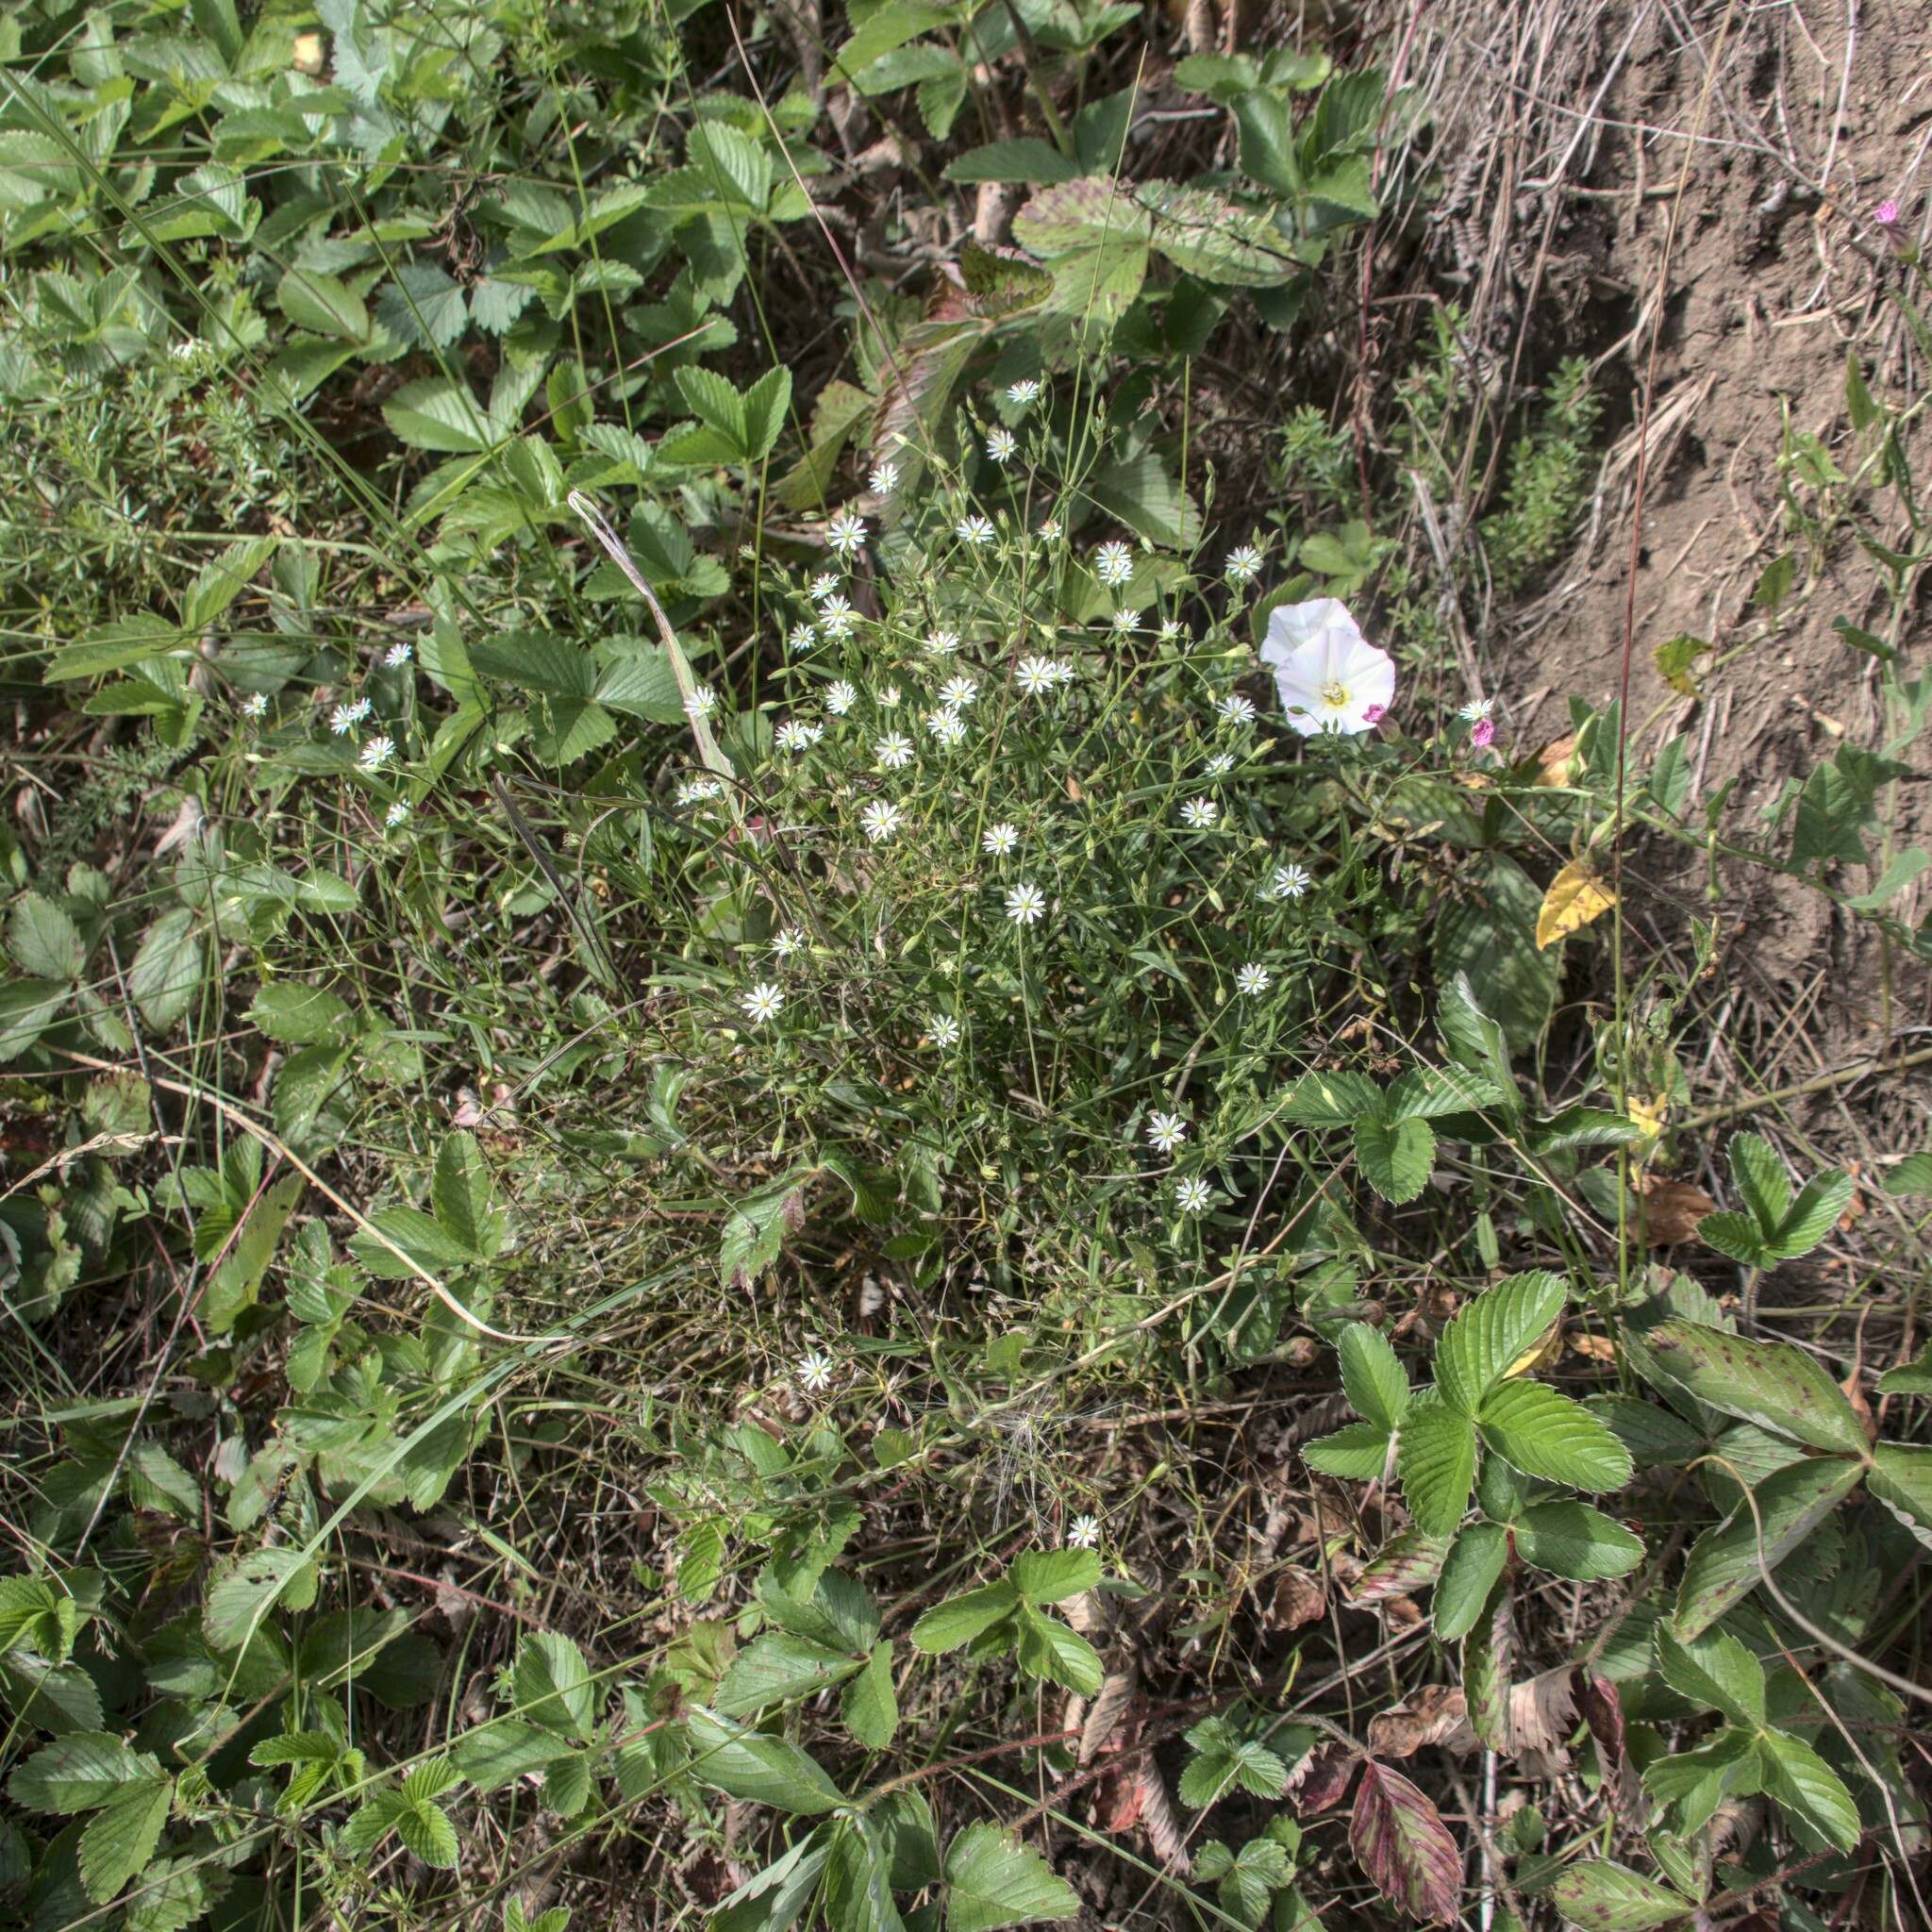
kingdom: Plantae
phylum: Tracheophyta
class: Magnoliopsida
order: Caryophyllales
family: Caryophyllaceae
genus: Stellaria
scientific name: Stellaria graminea
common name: Grass-like starwort
